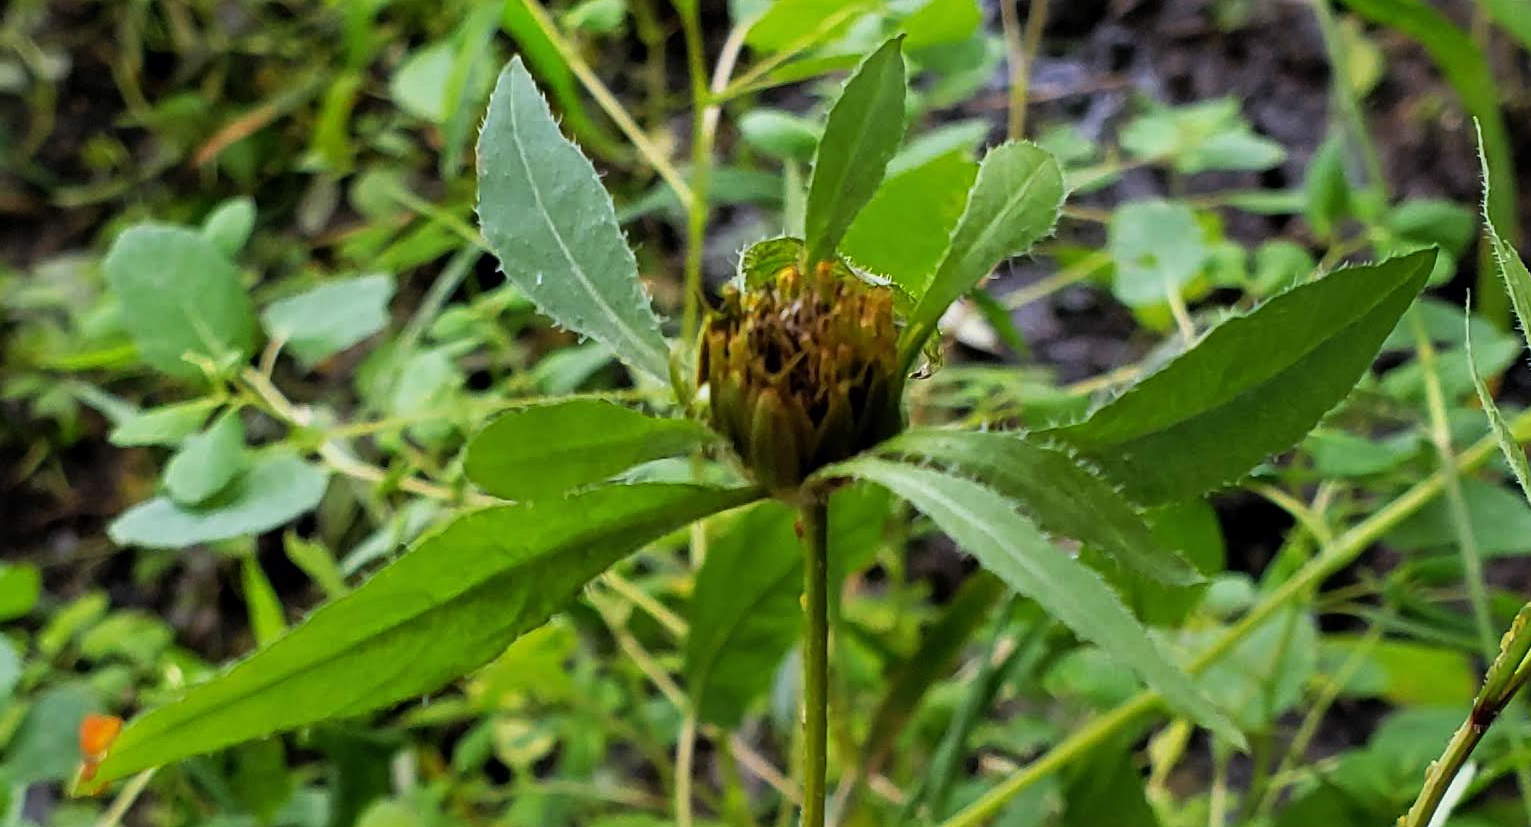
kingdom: Plantae
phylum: Tracheophyta
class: Magnoliopsida
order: Asterales
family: Asteraceae
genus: Bidens
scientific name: Bidens frondosa
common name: Beggarticks
